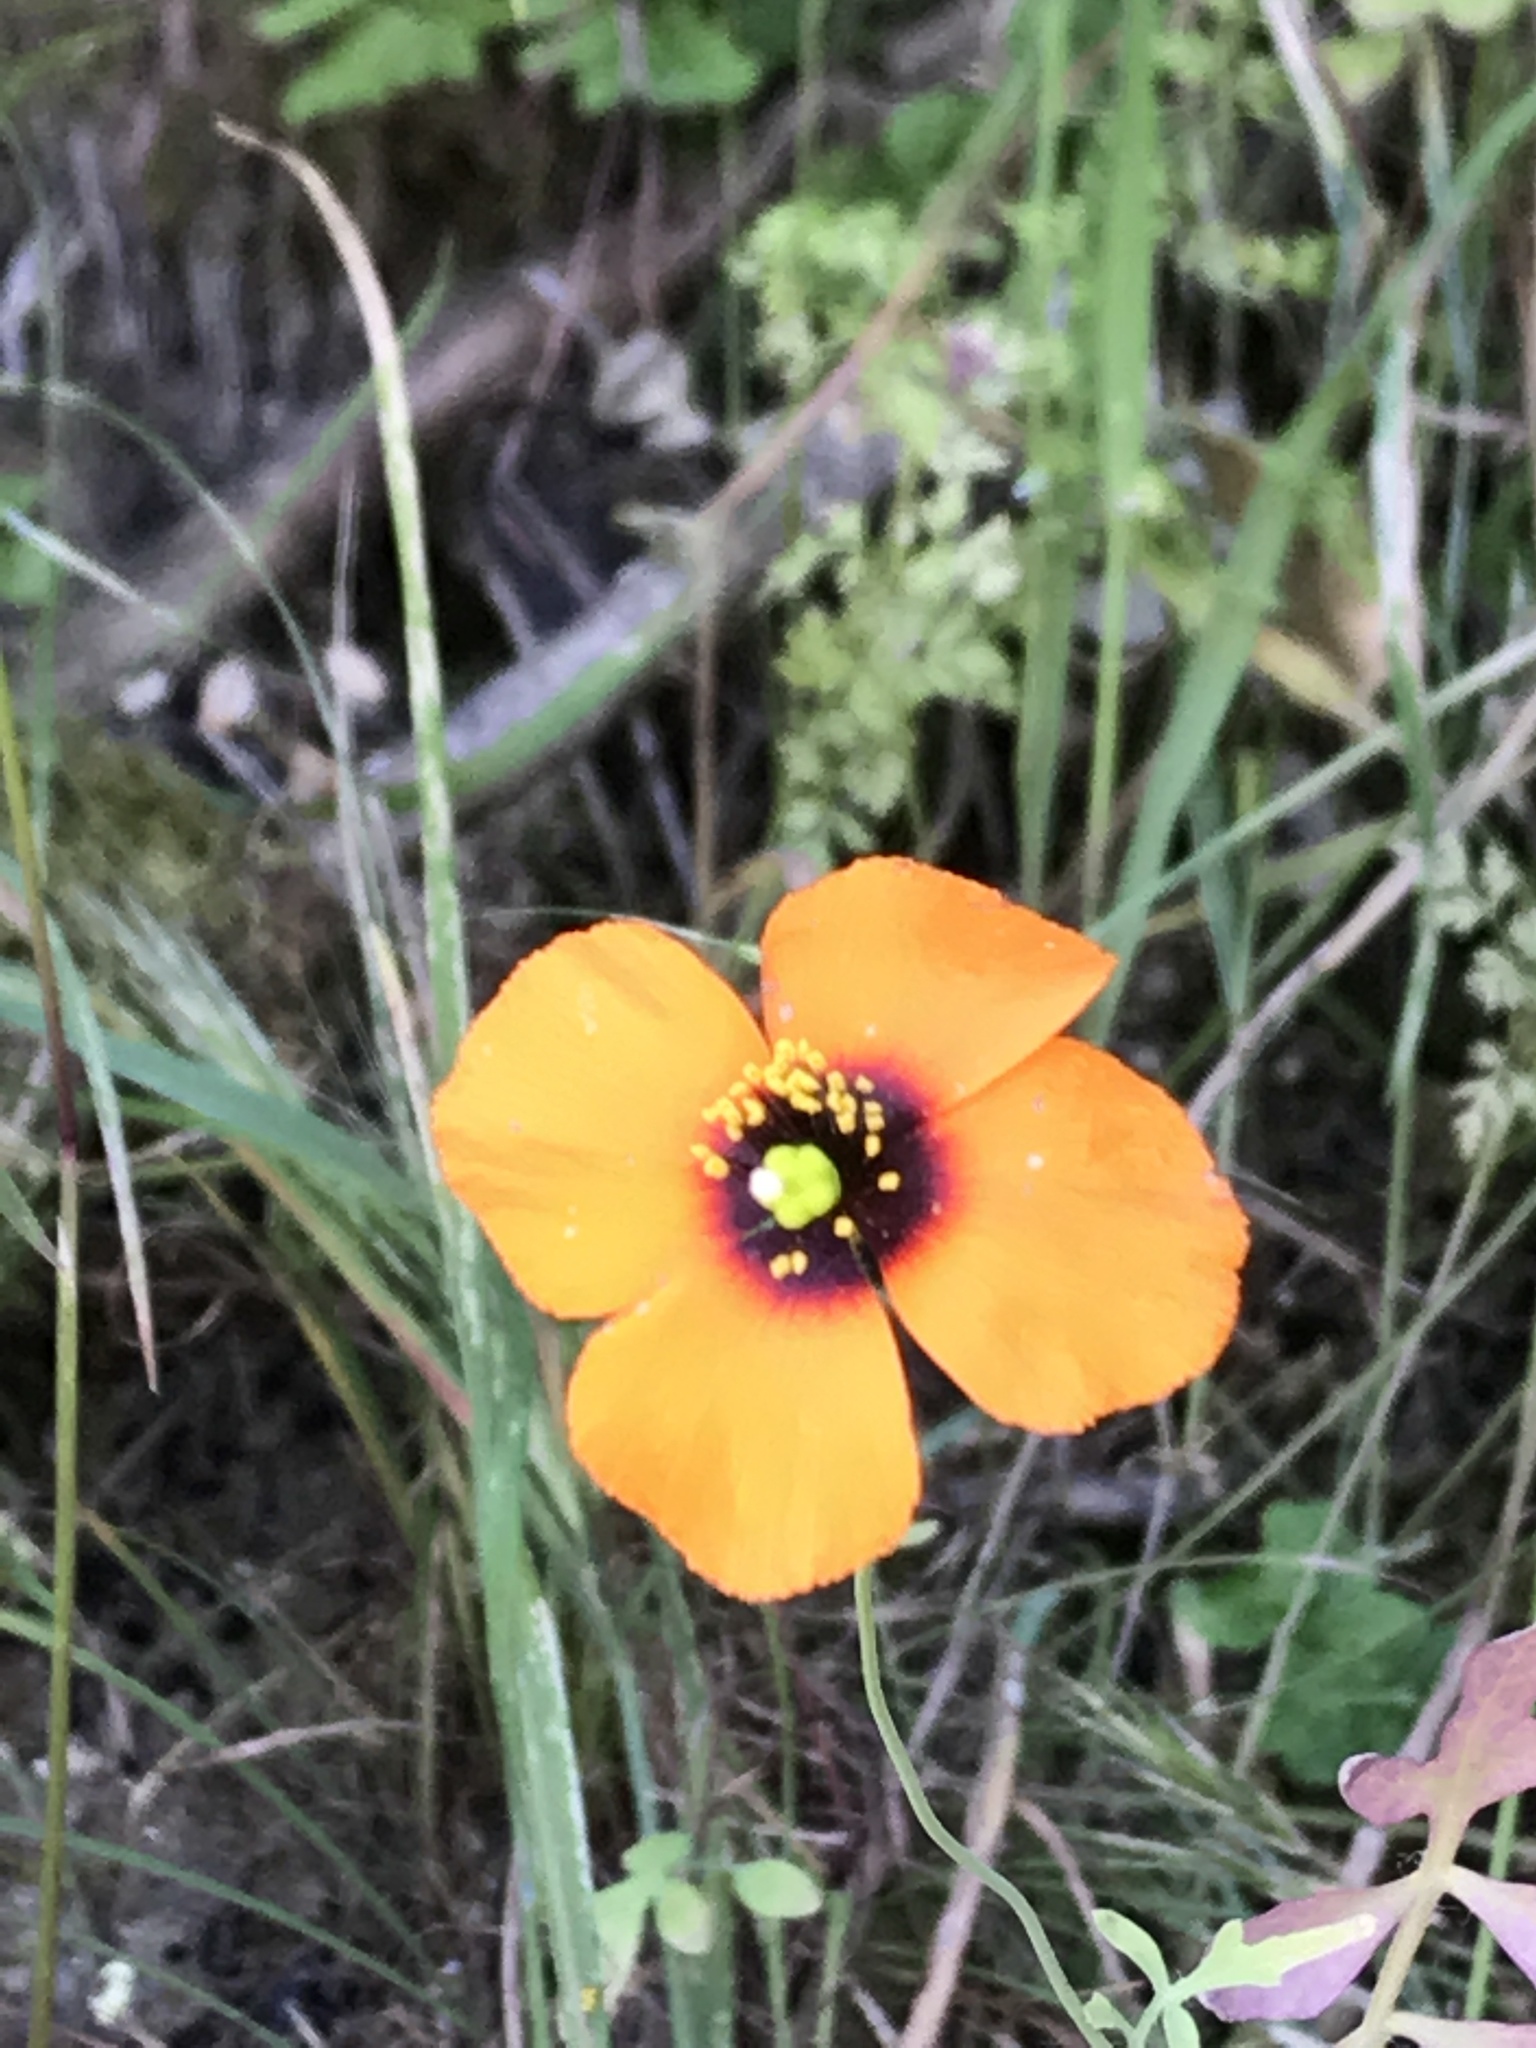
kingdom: Plantae
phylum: Tracheophyta
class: Magnoliopsida
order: Ranunculales
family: Papaveraceae
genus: Stylomecon
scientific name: Stylomecon heterophylla
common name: Flaming-poppy
